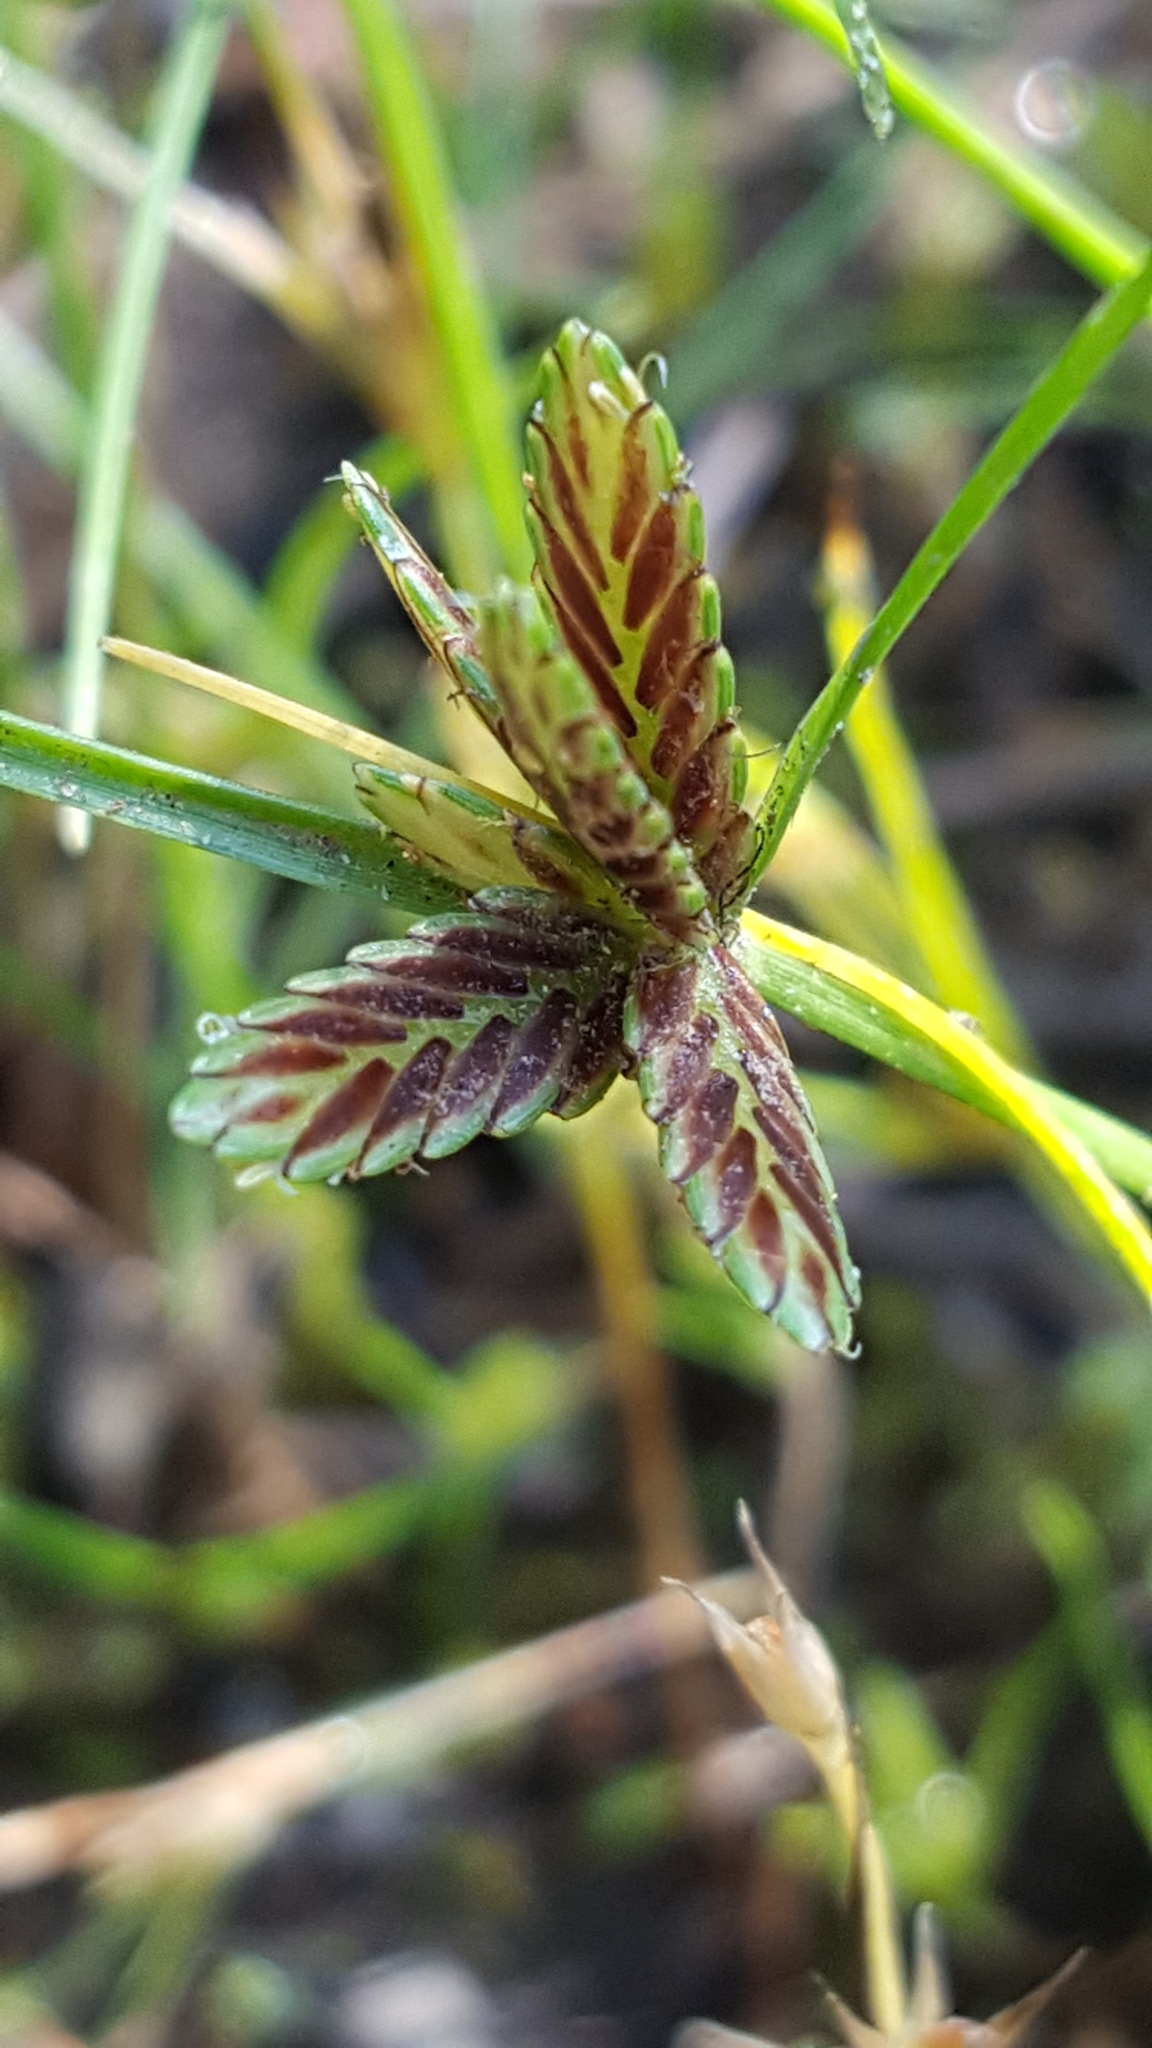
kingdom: Plantae
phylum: Tracheophyta
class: Liliopsida
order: Poales
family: Cyperaceae
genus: Cyperus
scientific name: Cyperus bipartitus
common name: Brook flatsedge
